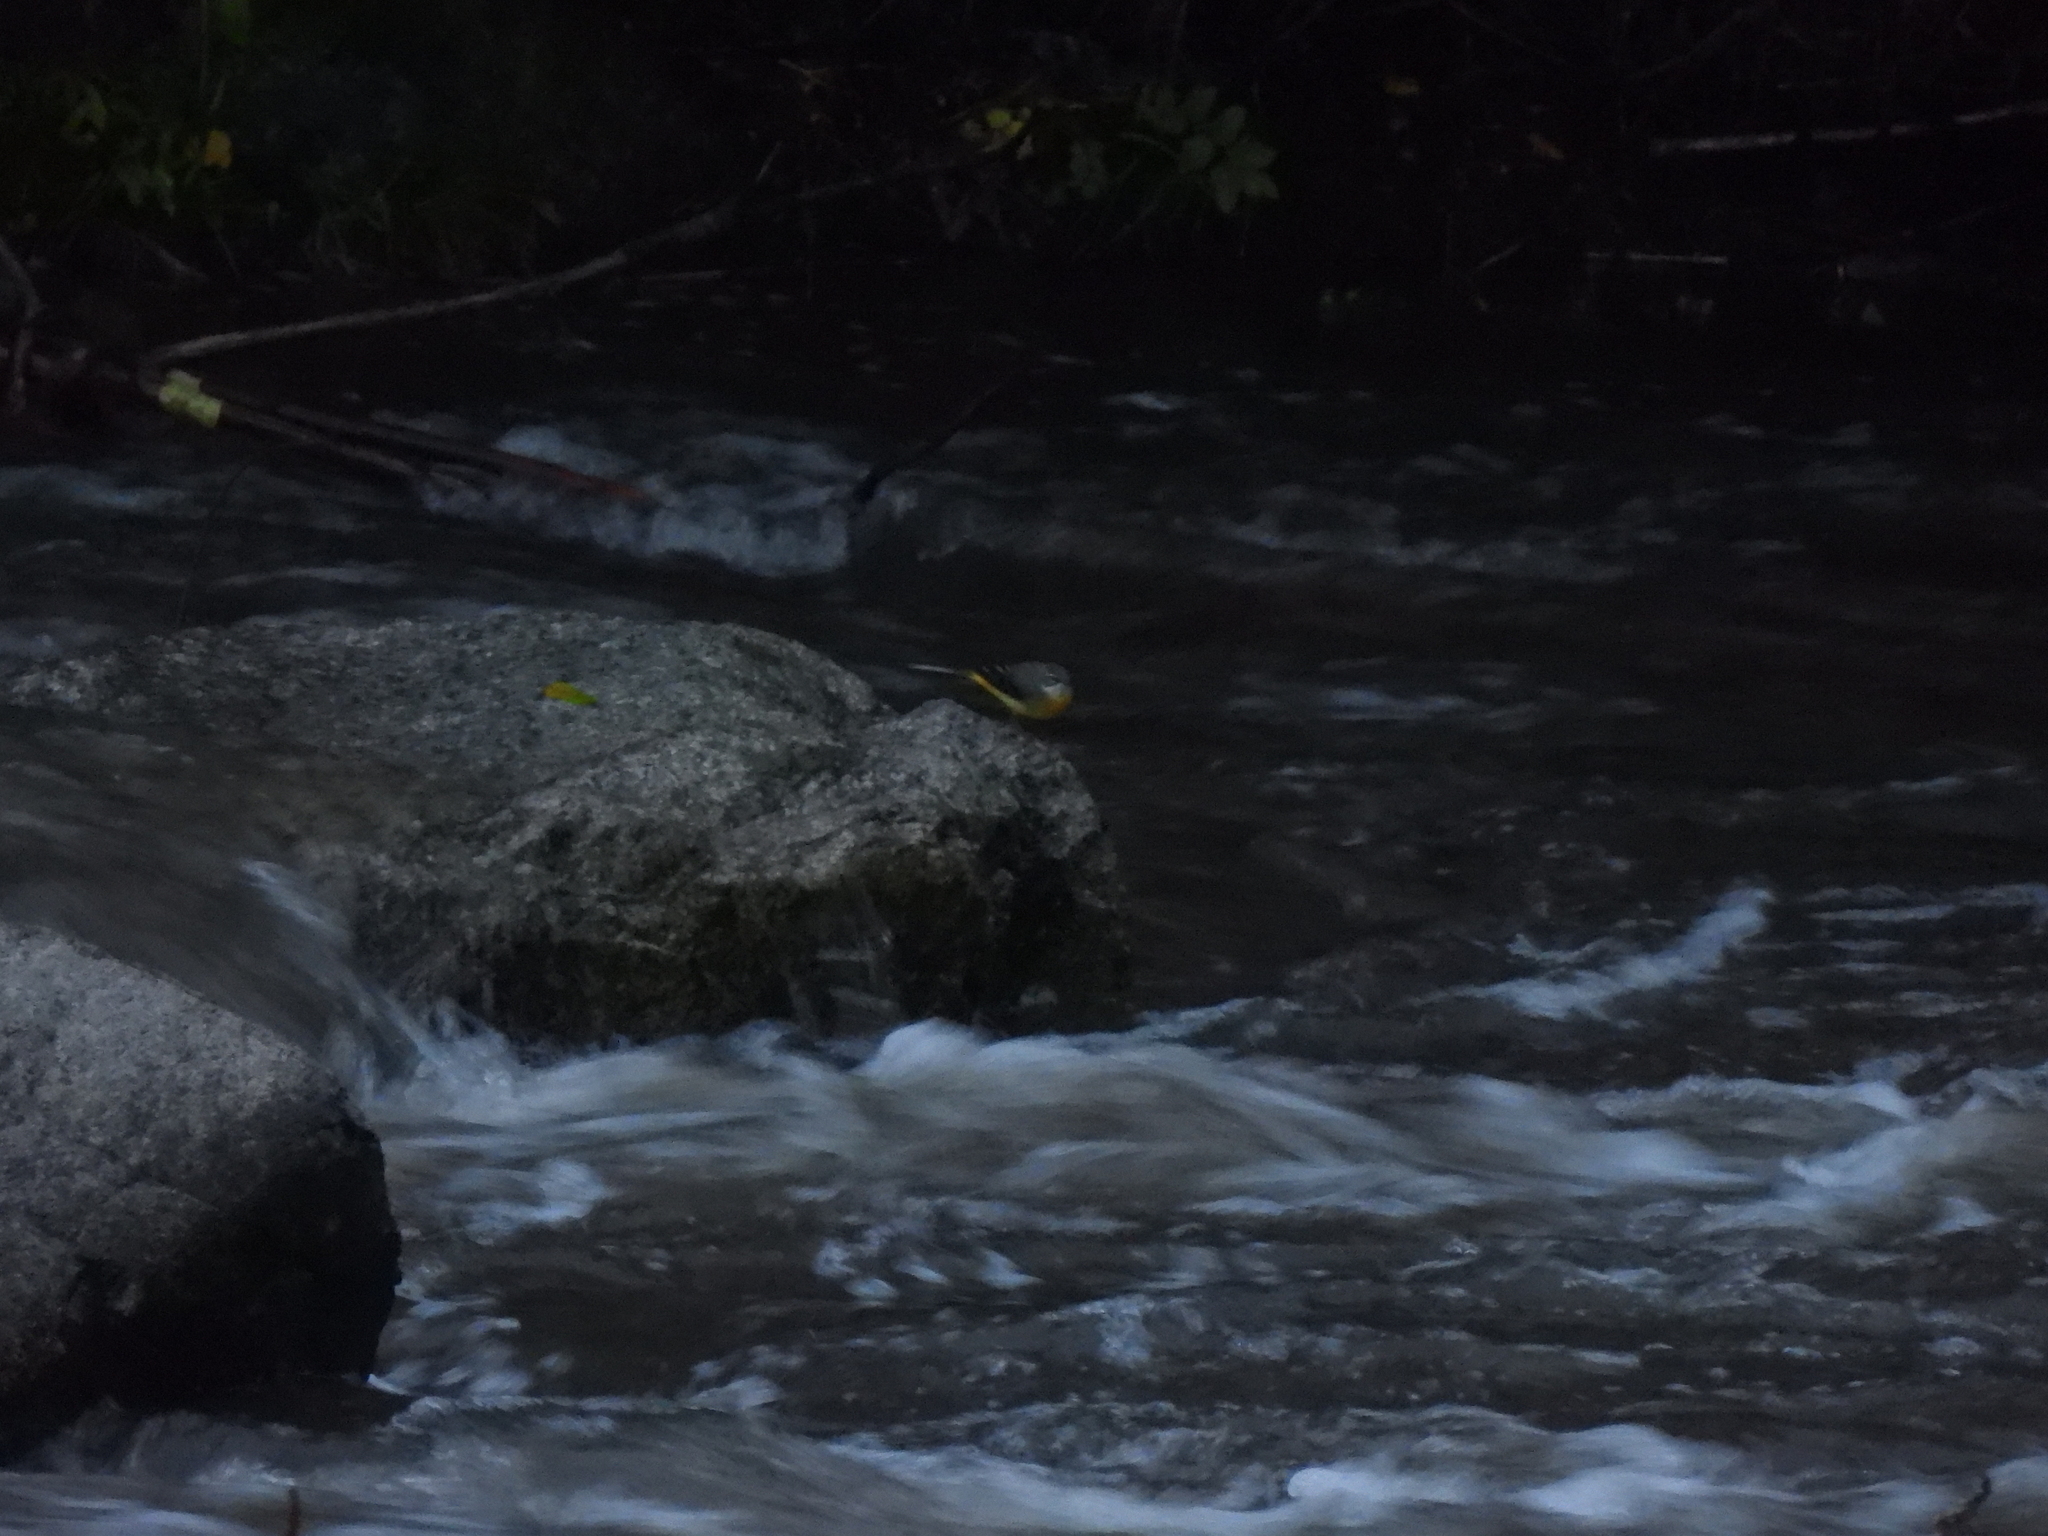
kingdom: Animalia
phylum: Chordata
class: Aves
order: Passeriformes
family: Motacillidae
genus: Motacilla
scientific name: Motacilla cinerea
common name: Grey wagtail
